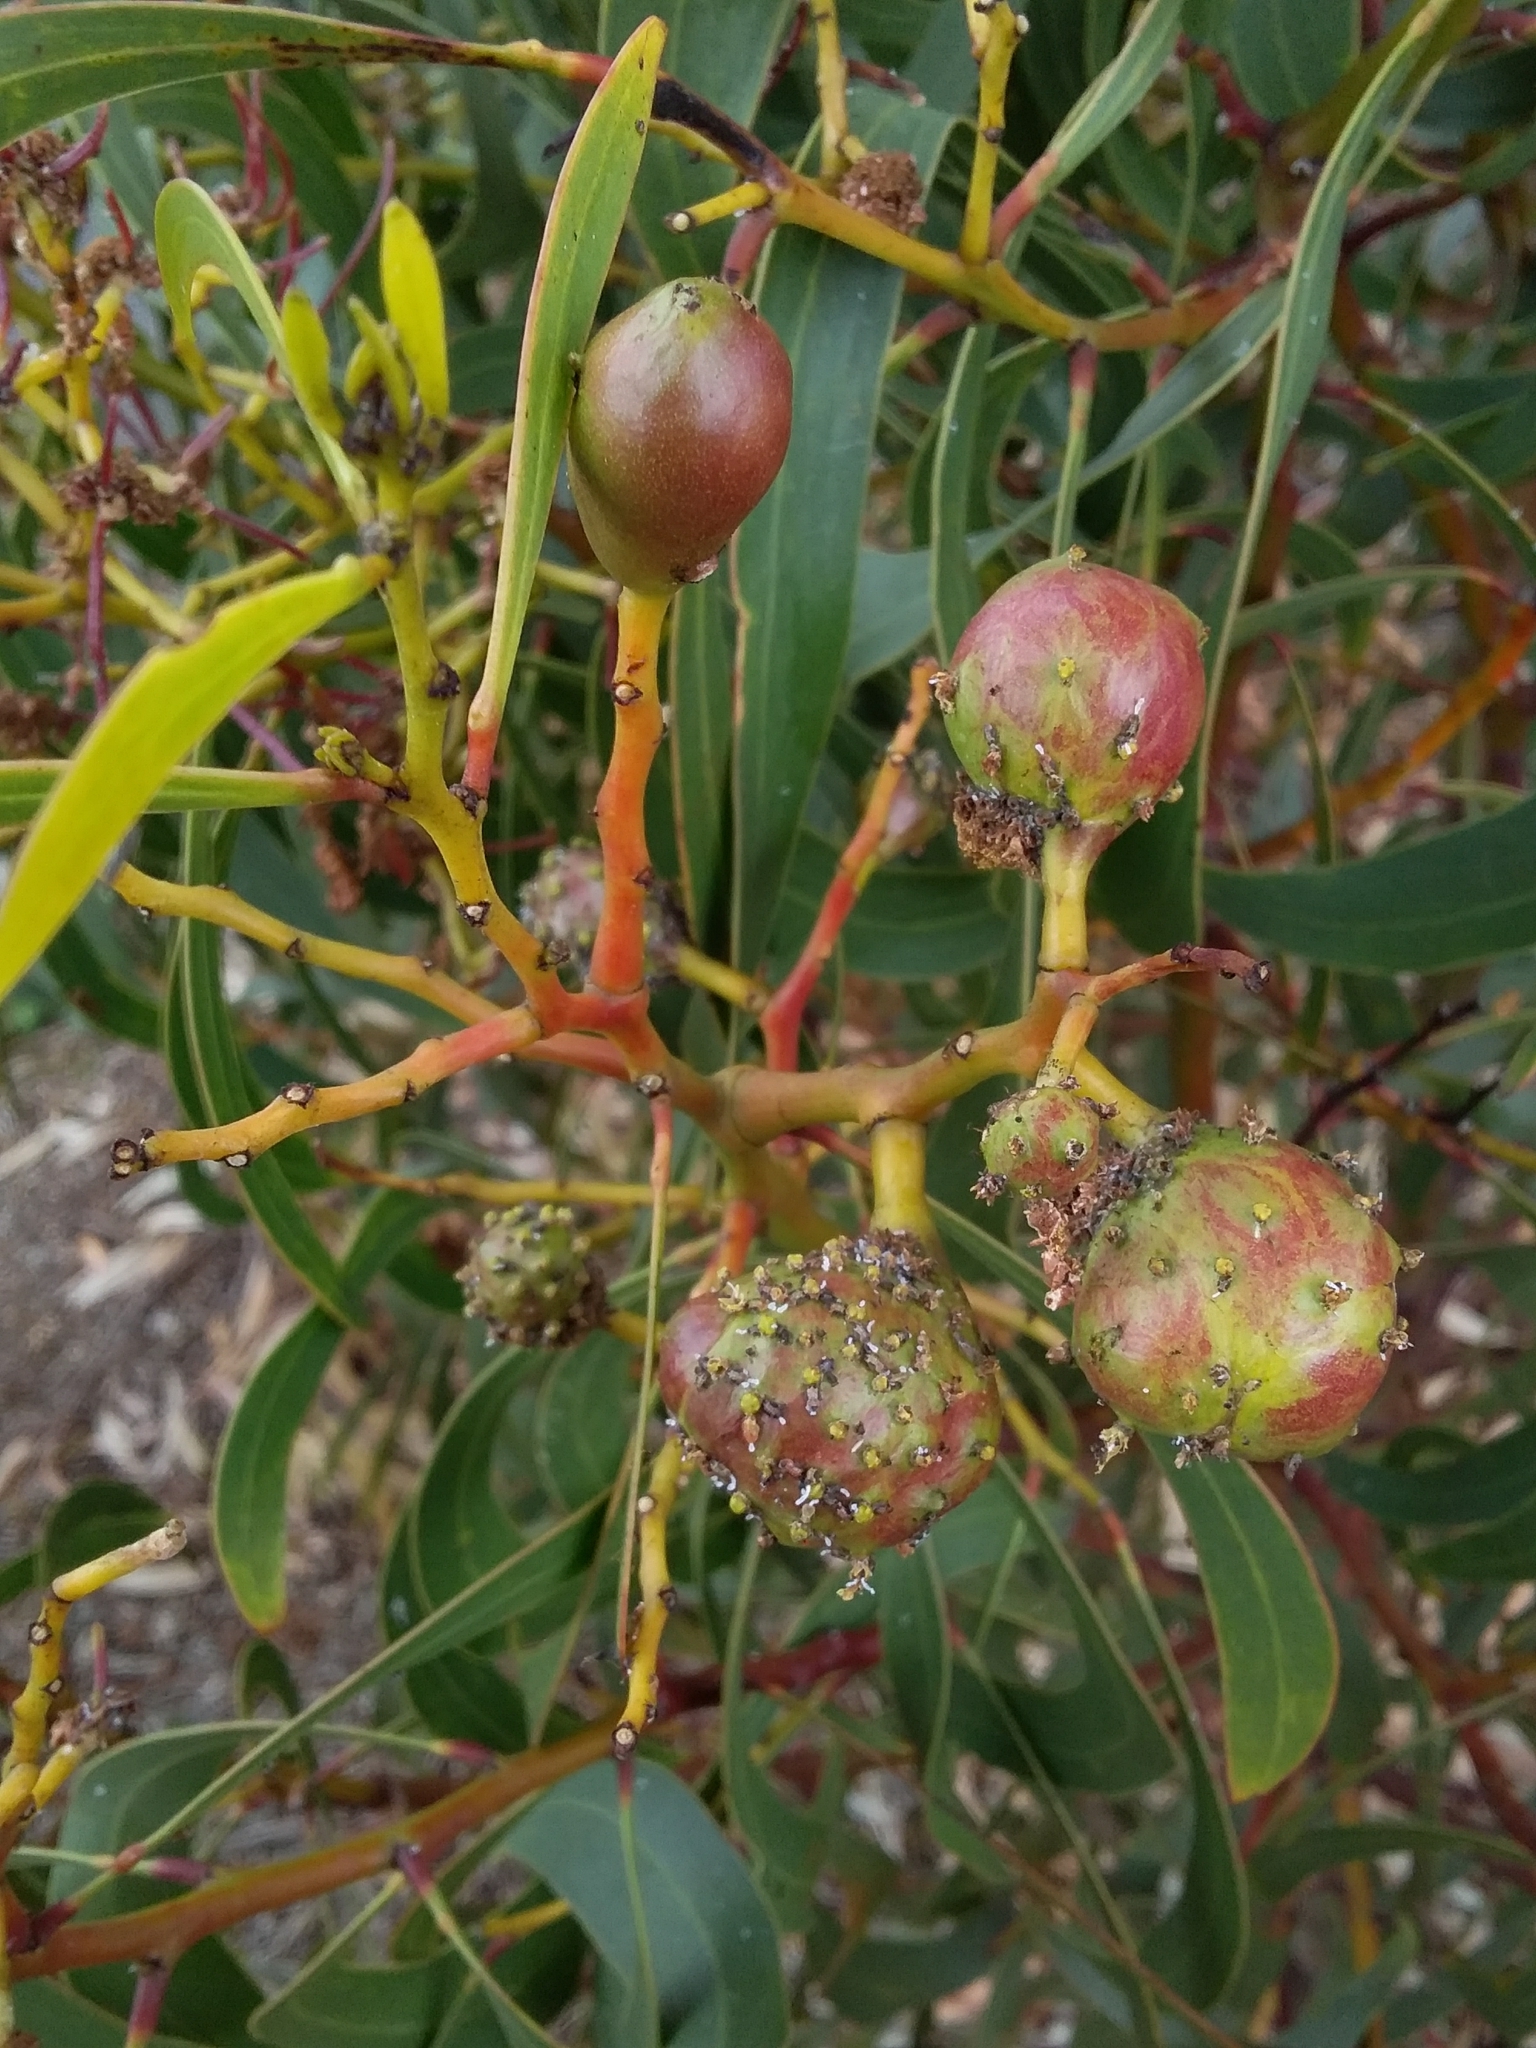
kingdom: Animalia
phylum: Arthropoda
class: Insecta
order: Hymenoptera
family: Pteromalidae
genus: Trichilogaster
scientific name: Trichilogaster signiventris
